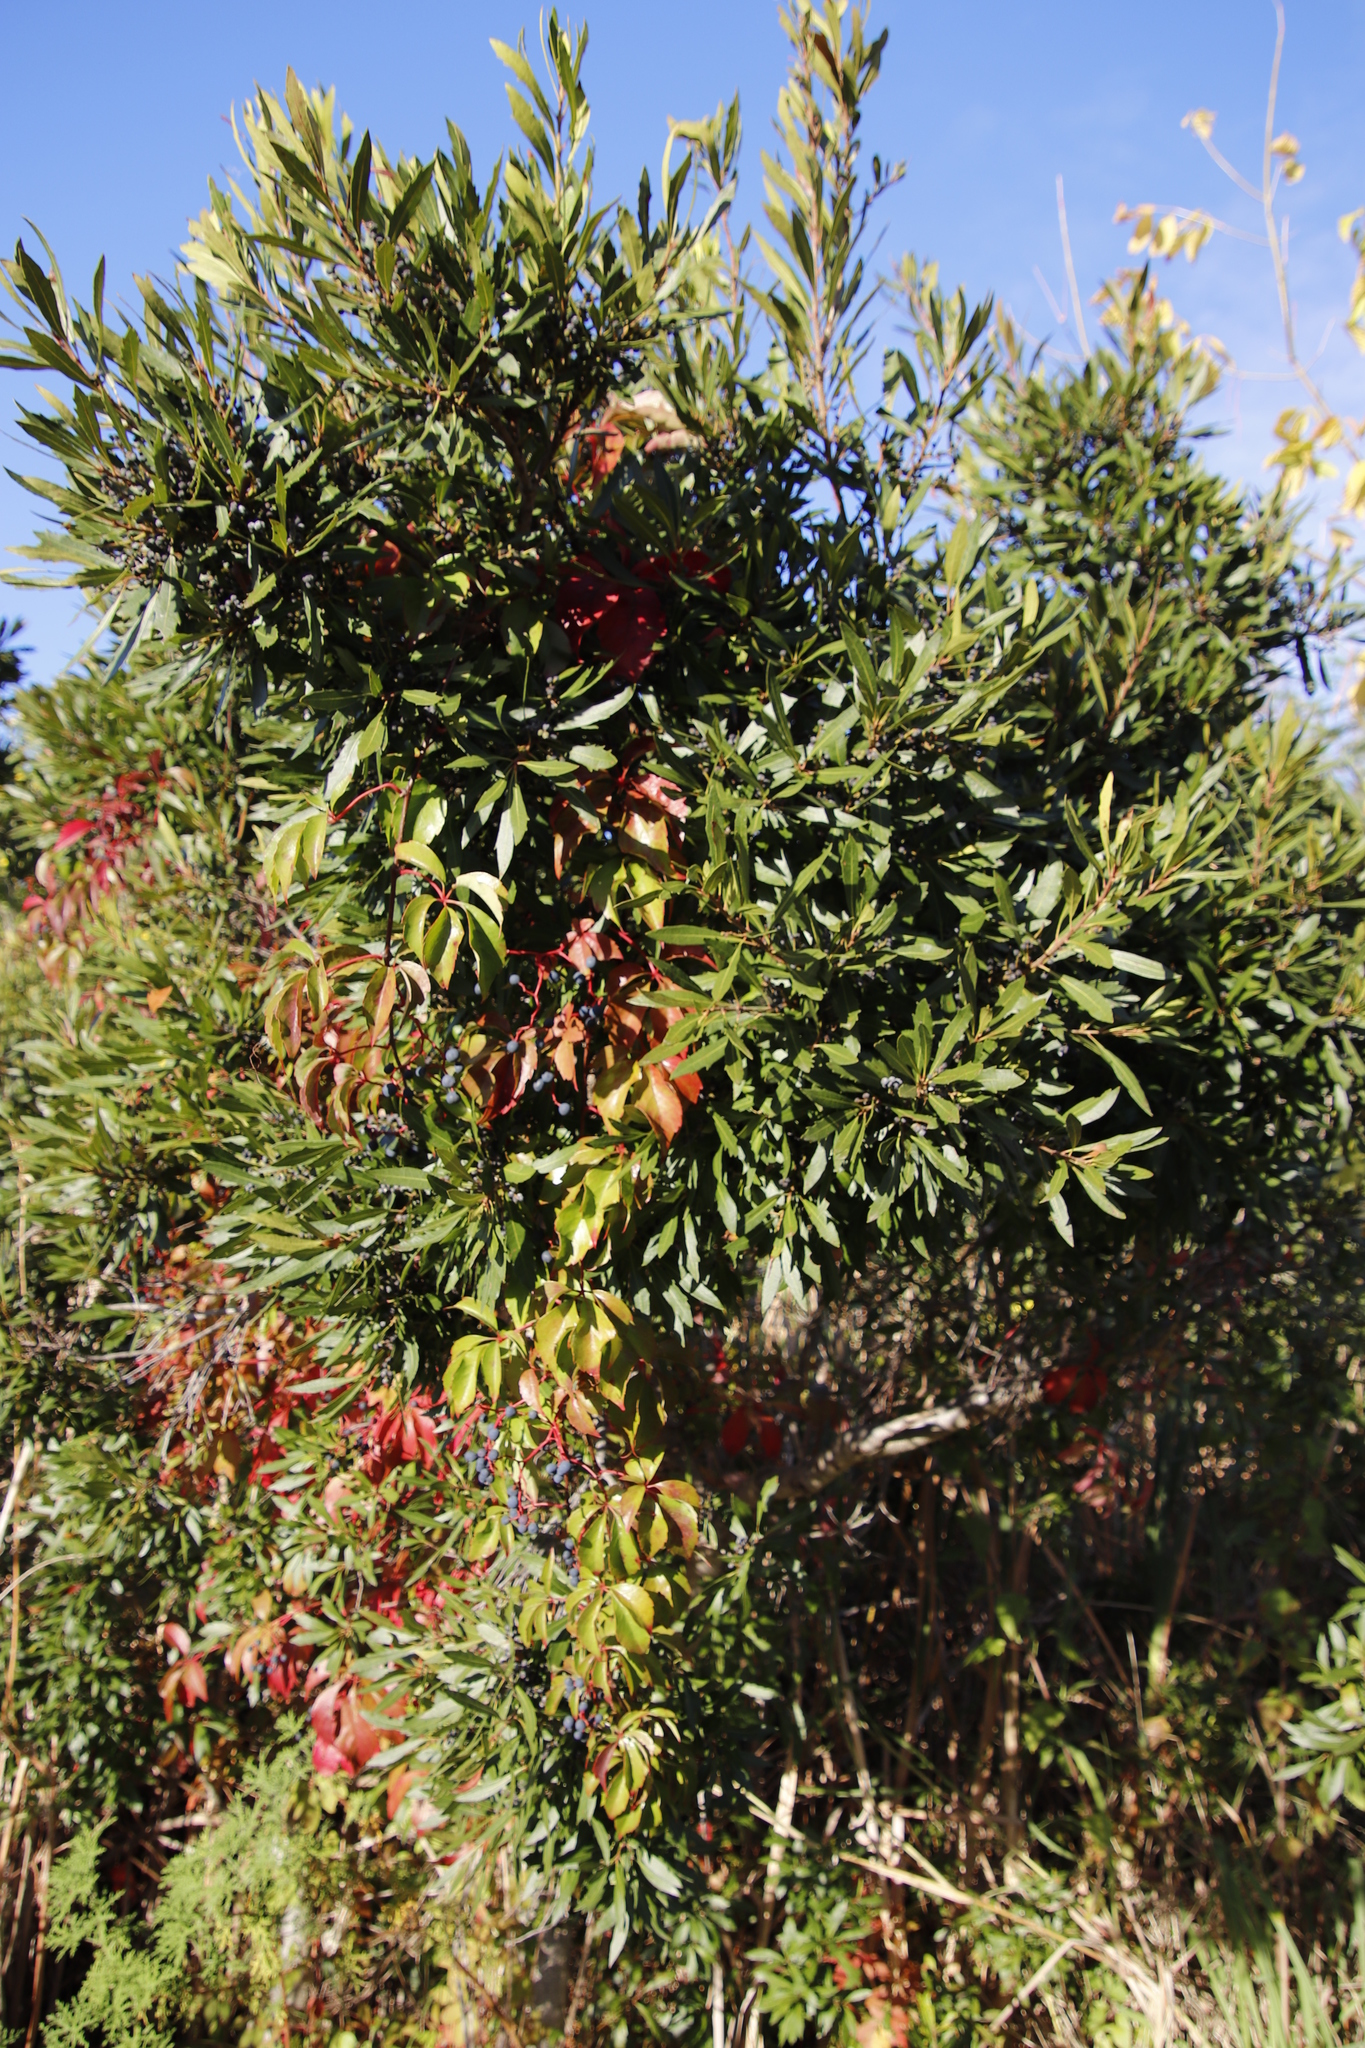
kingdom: Plantae
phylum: Tracheophyta
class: Magnoliopsida
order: Fagales
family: Myricaceae
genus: Morella
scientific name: Morella serrata
